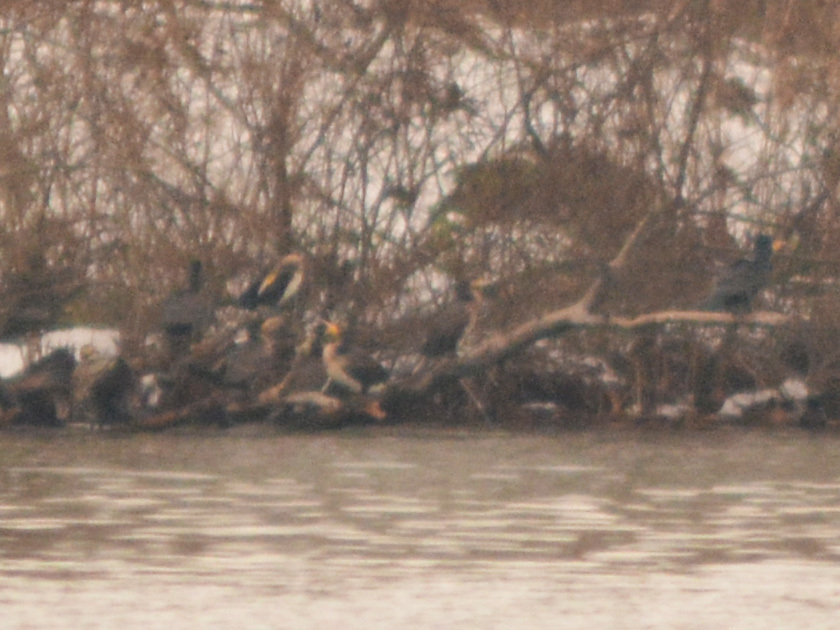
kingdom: Animalia
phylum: Chordata
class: Aves
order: Suliformes
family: Phalacrocoracidae
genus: Phalacrocorax
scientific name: Phalacrocorax carbo
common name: Great cormorant
